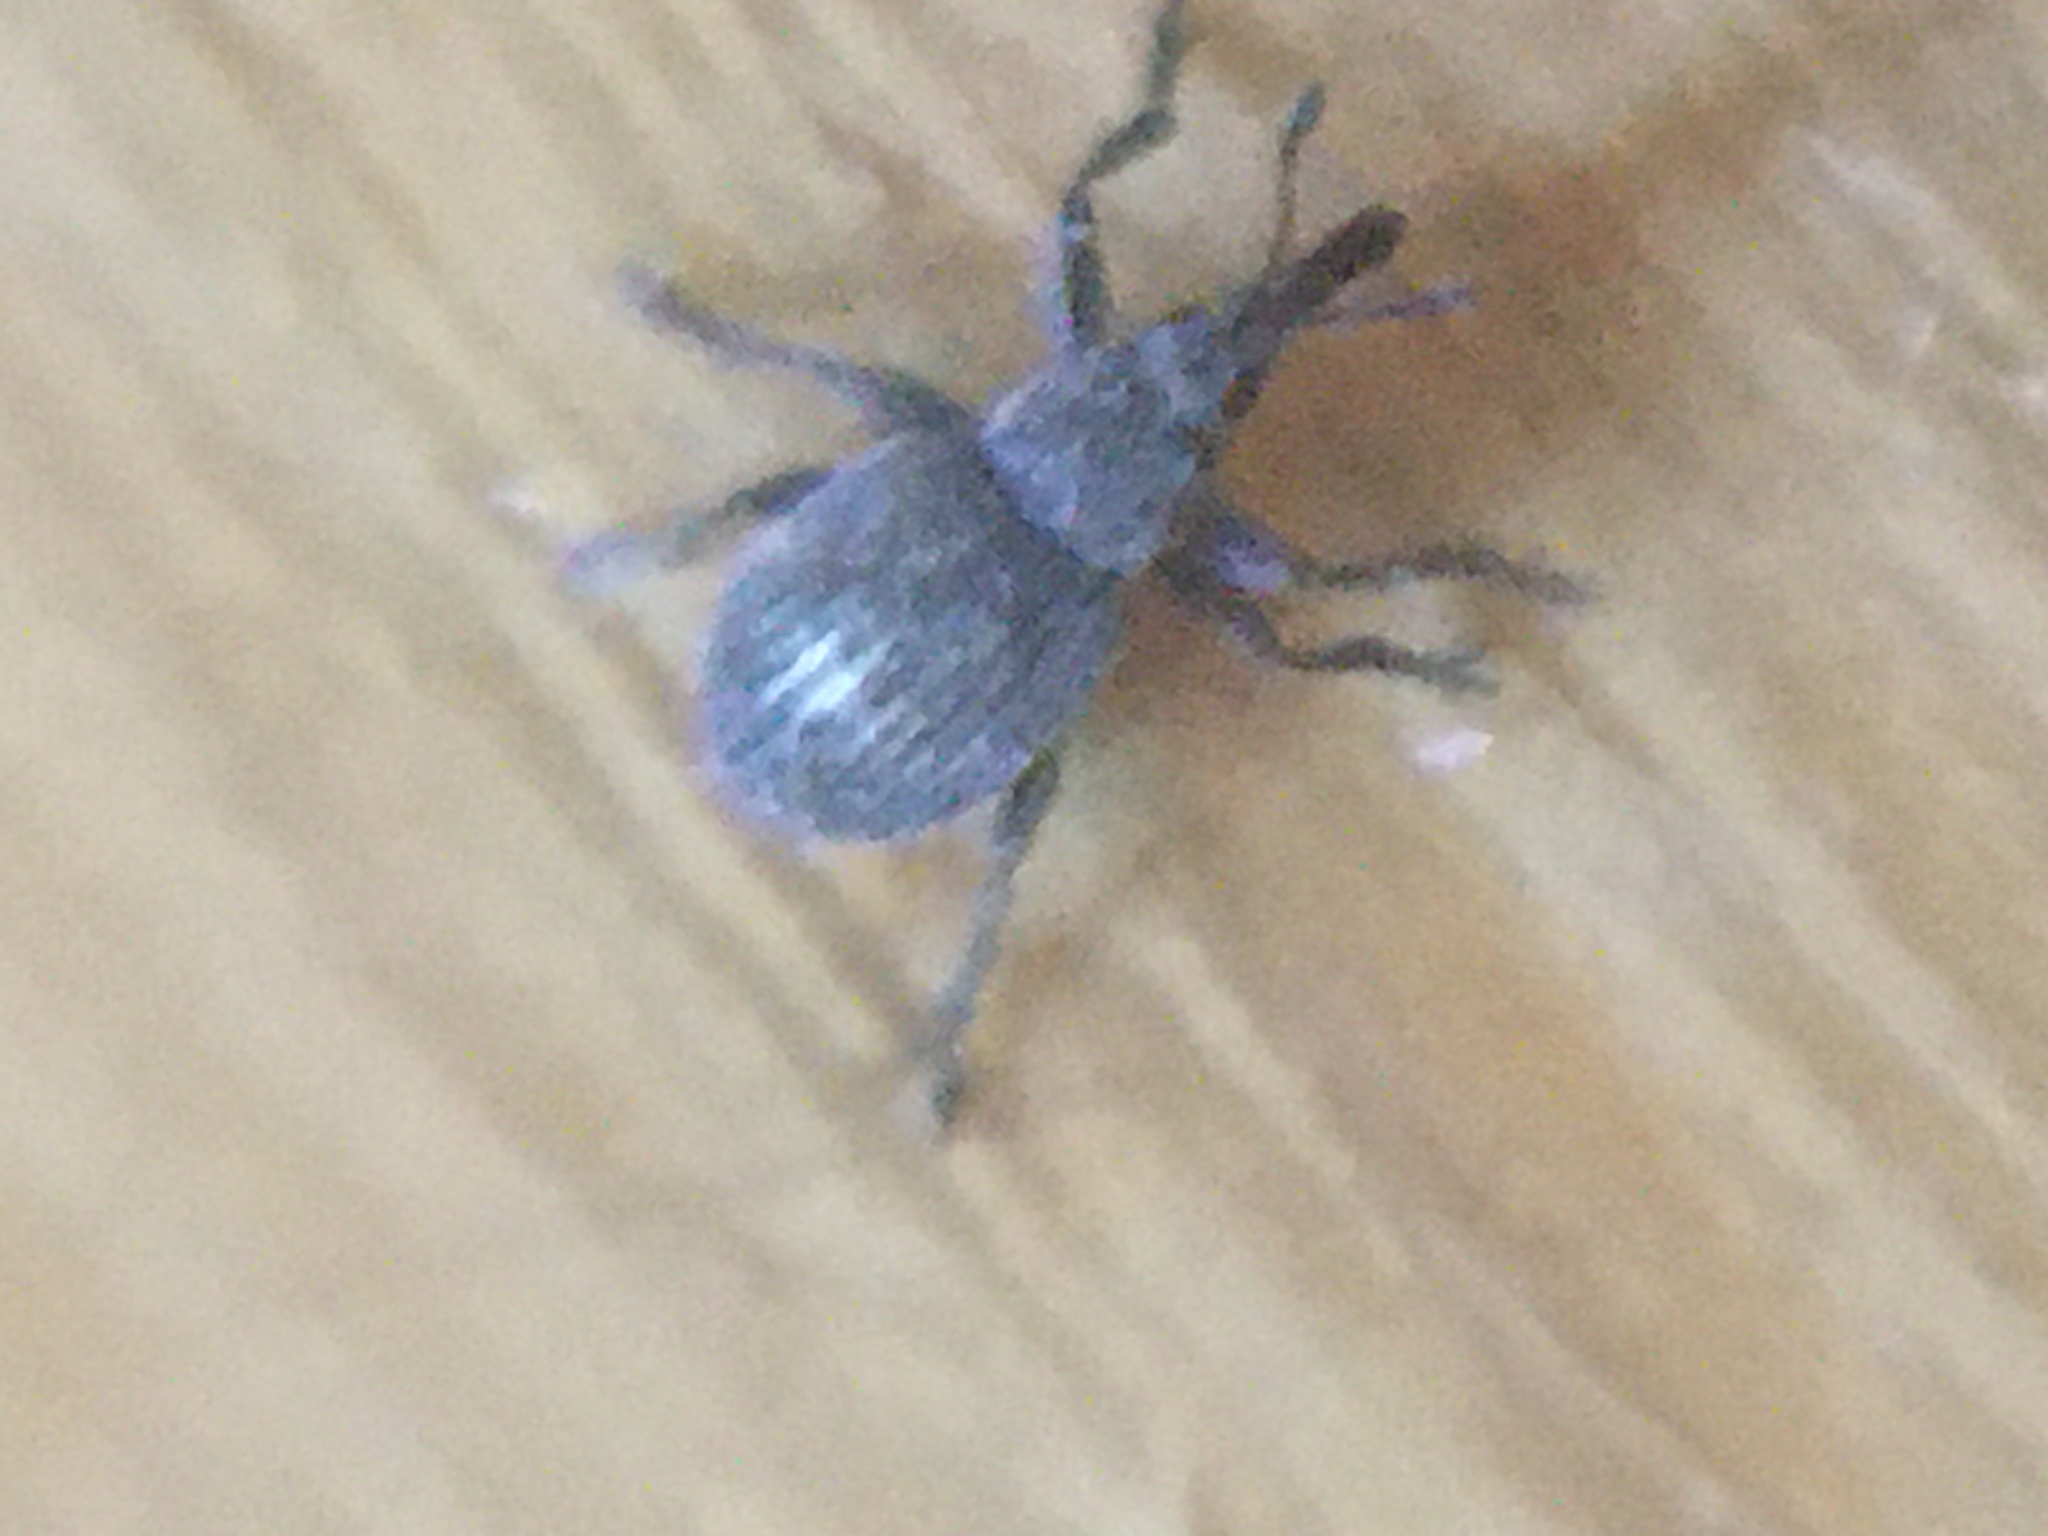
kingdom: Animalia
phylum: Arthropoda
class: Insecta
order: Coleoptera
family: Apionidae
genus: Pseudoperapion
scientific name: Pseudoperapion brevirostre
